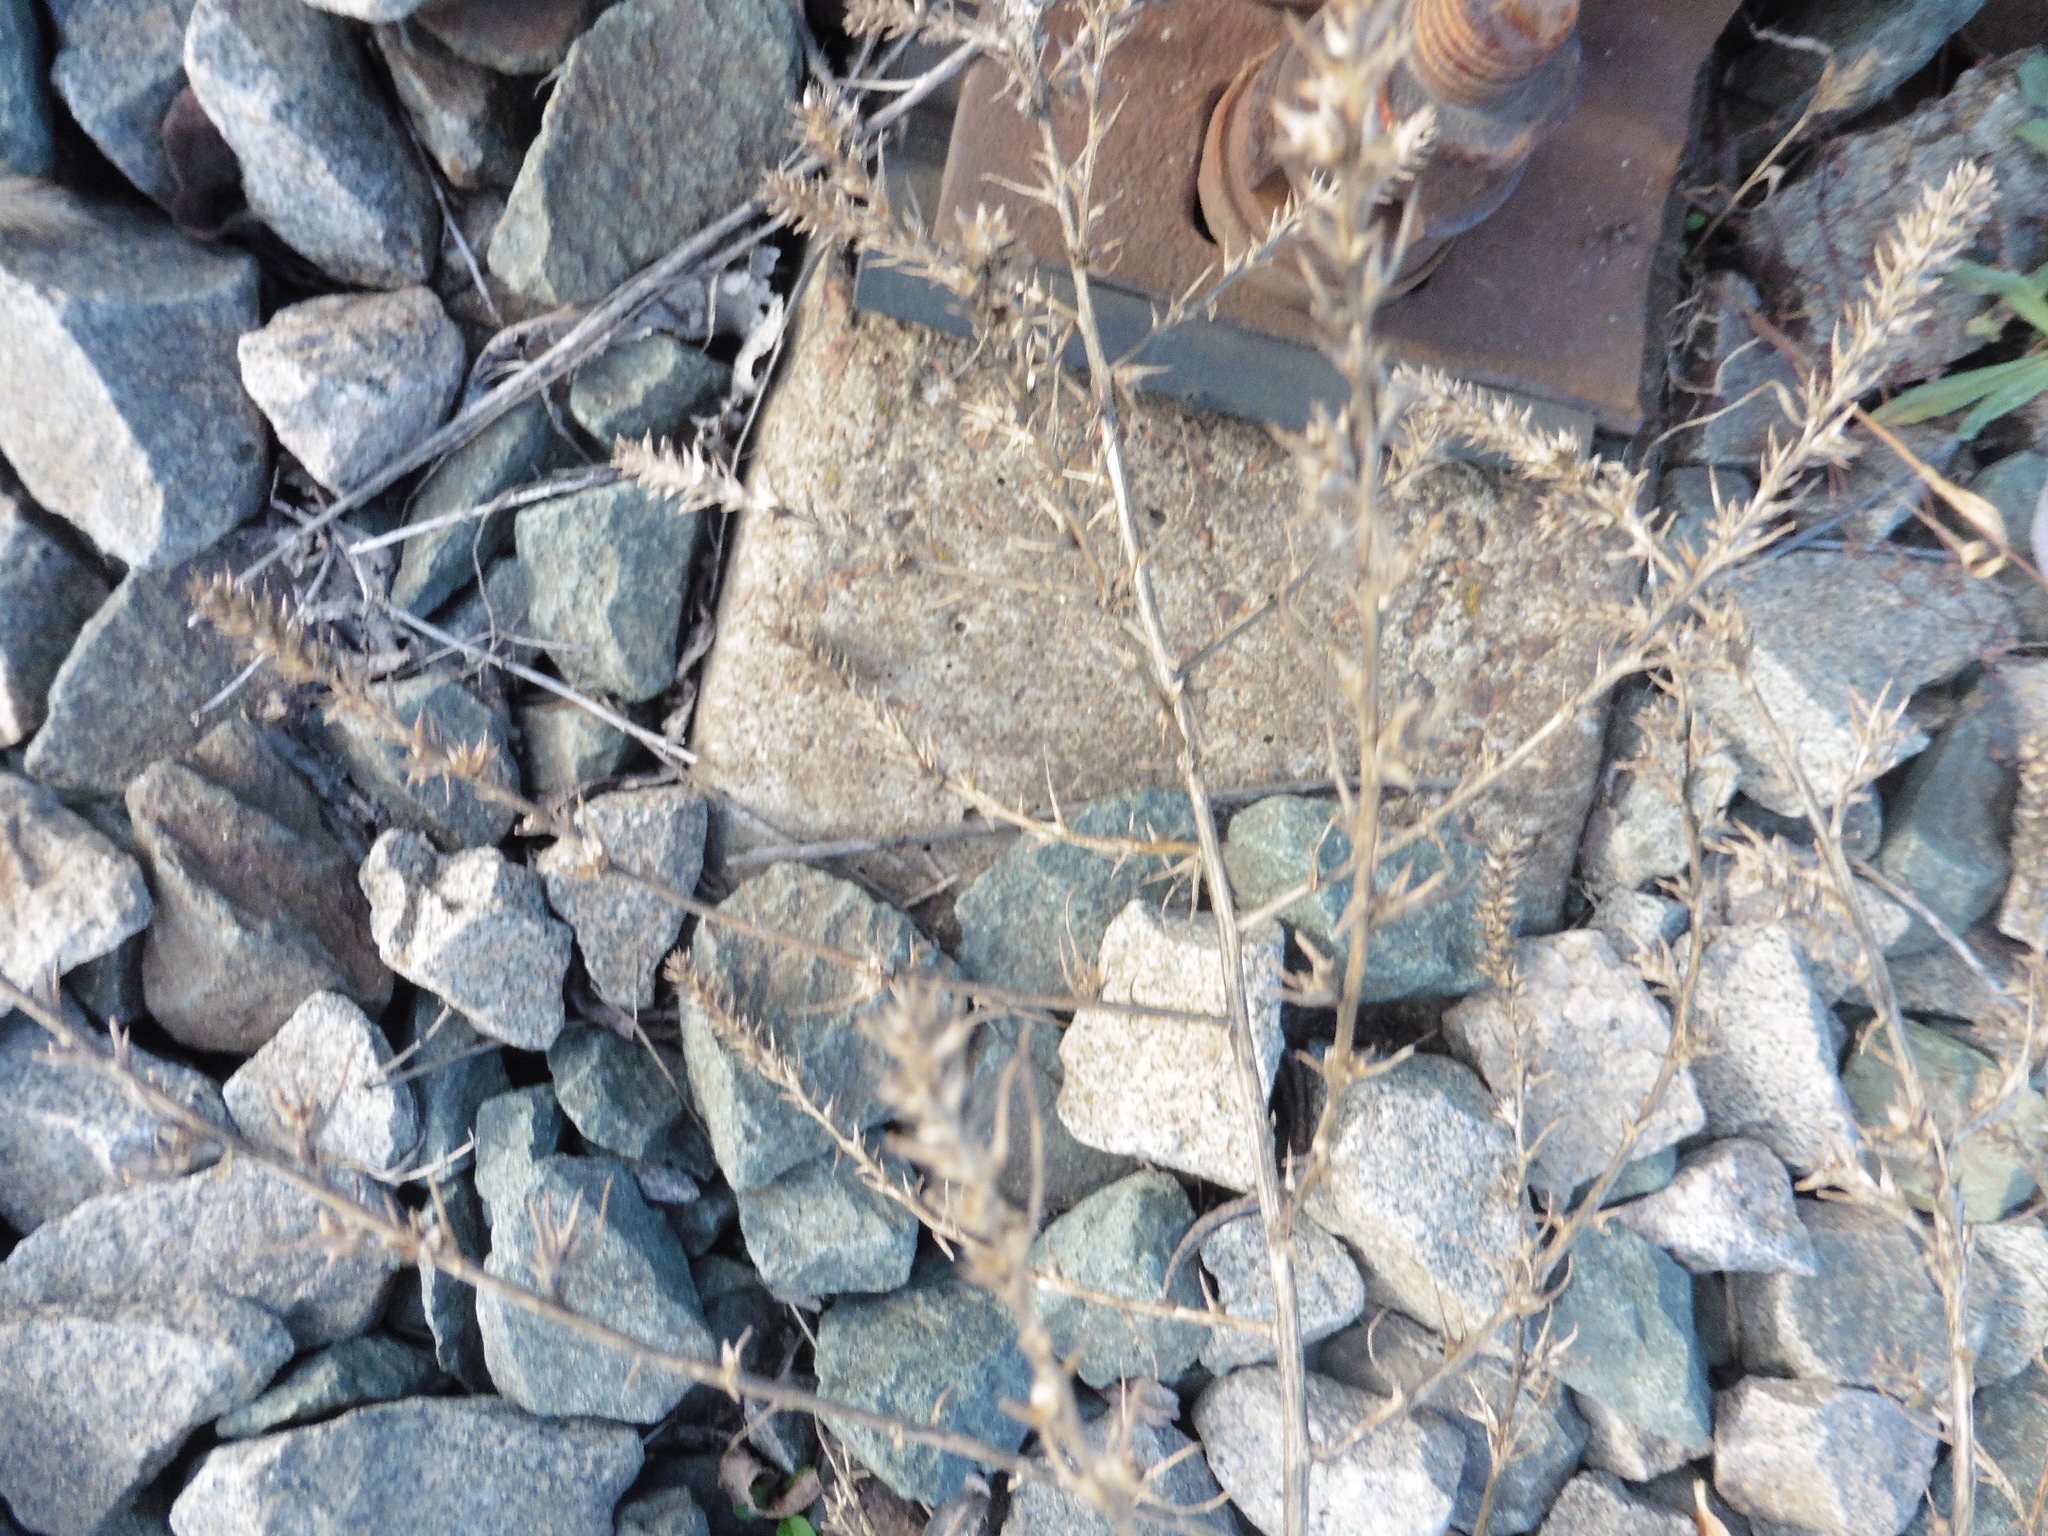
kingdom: Plantae
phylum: Tracheophyta
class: Magnoliopsida
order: Caryophyllales
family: Amaranthaceae
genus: Salsola
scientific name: Salsola tragus
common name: Prickly russian thistle
